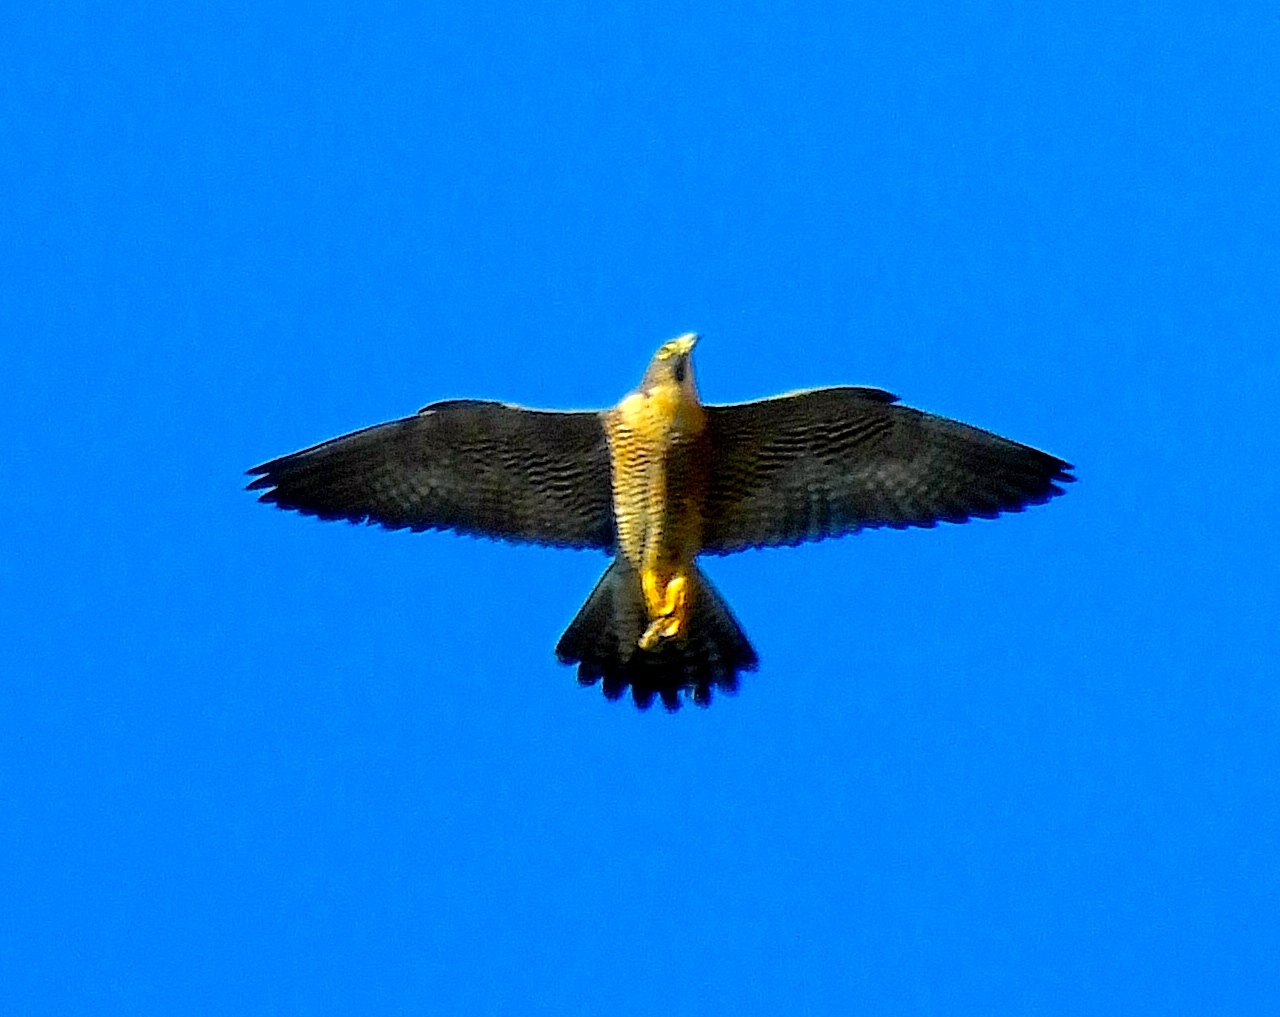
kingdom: Animalia
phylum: Chordata
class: Aves
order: Falconiformes
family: Falconidae
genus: Falco
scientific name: Falco peregrinus
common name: Peregrine falcon
